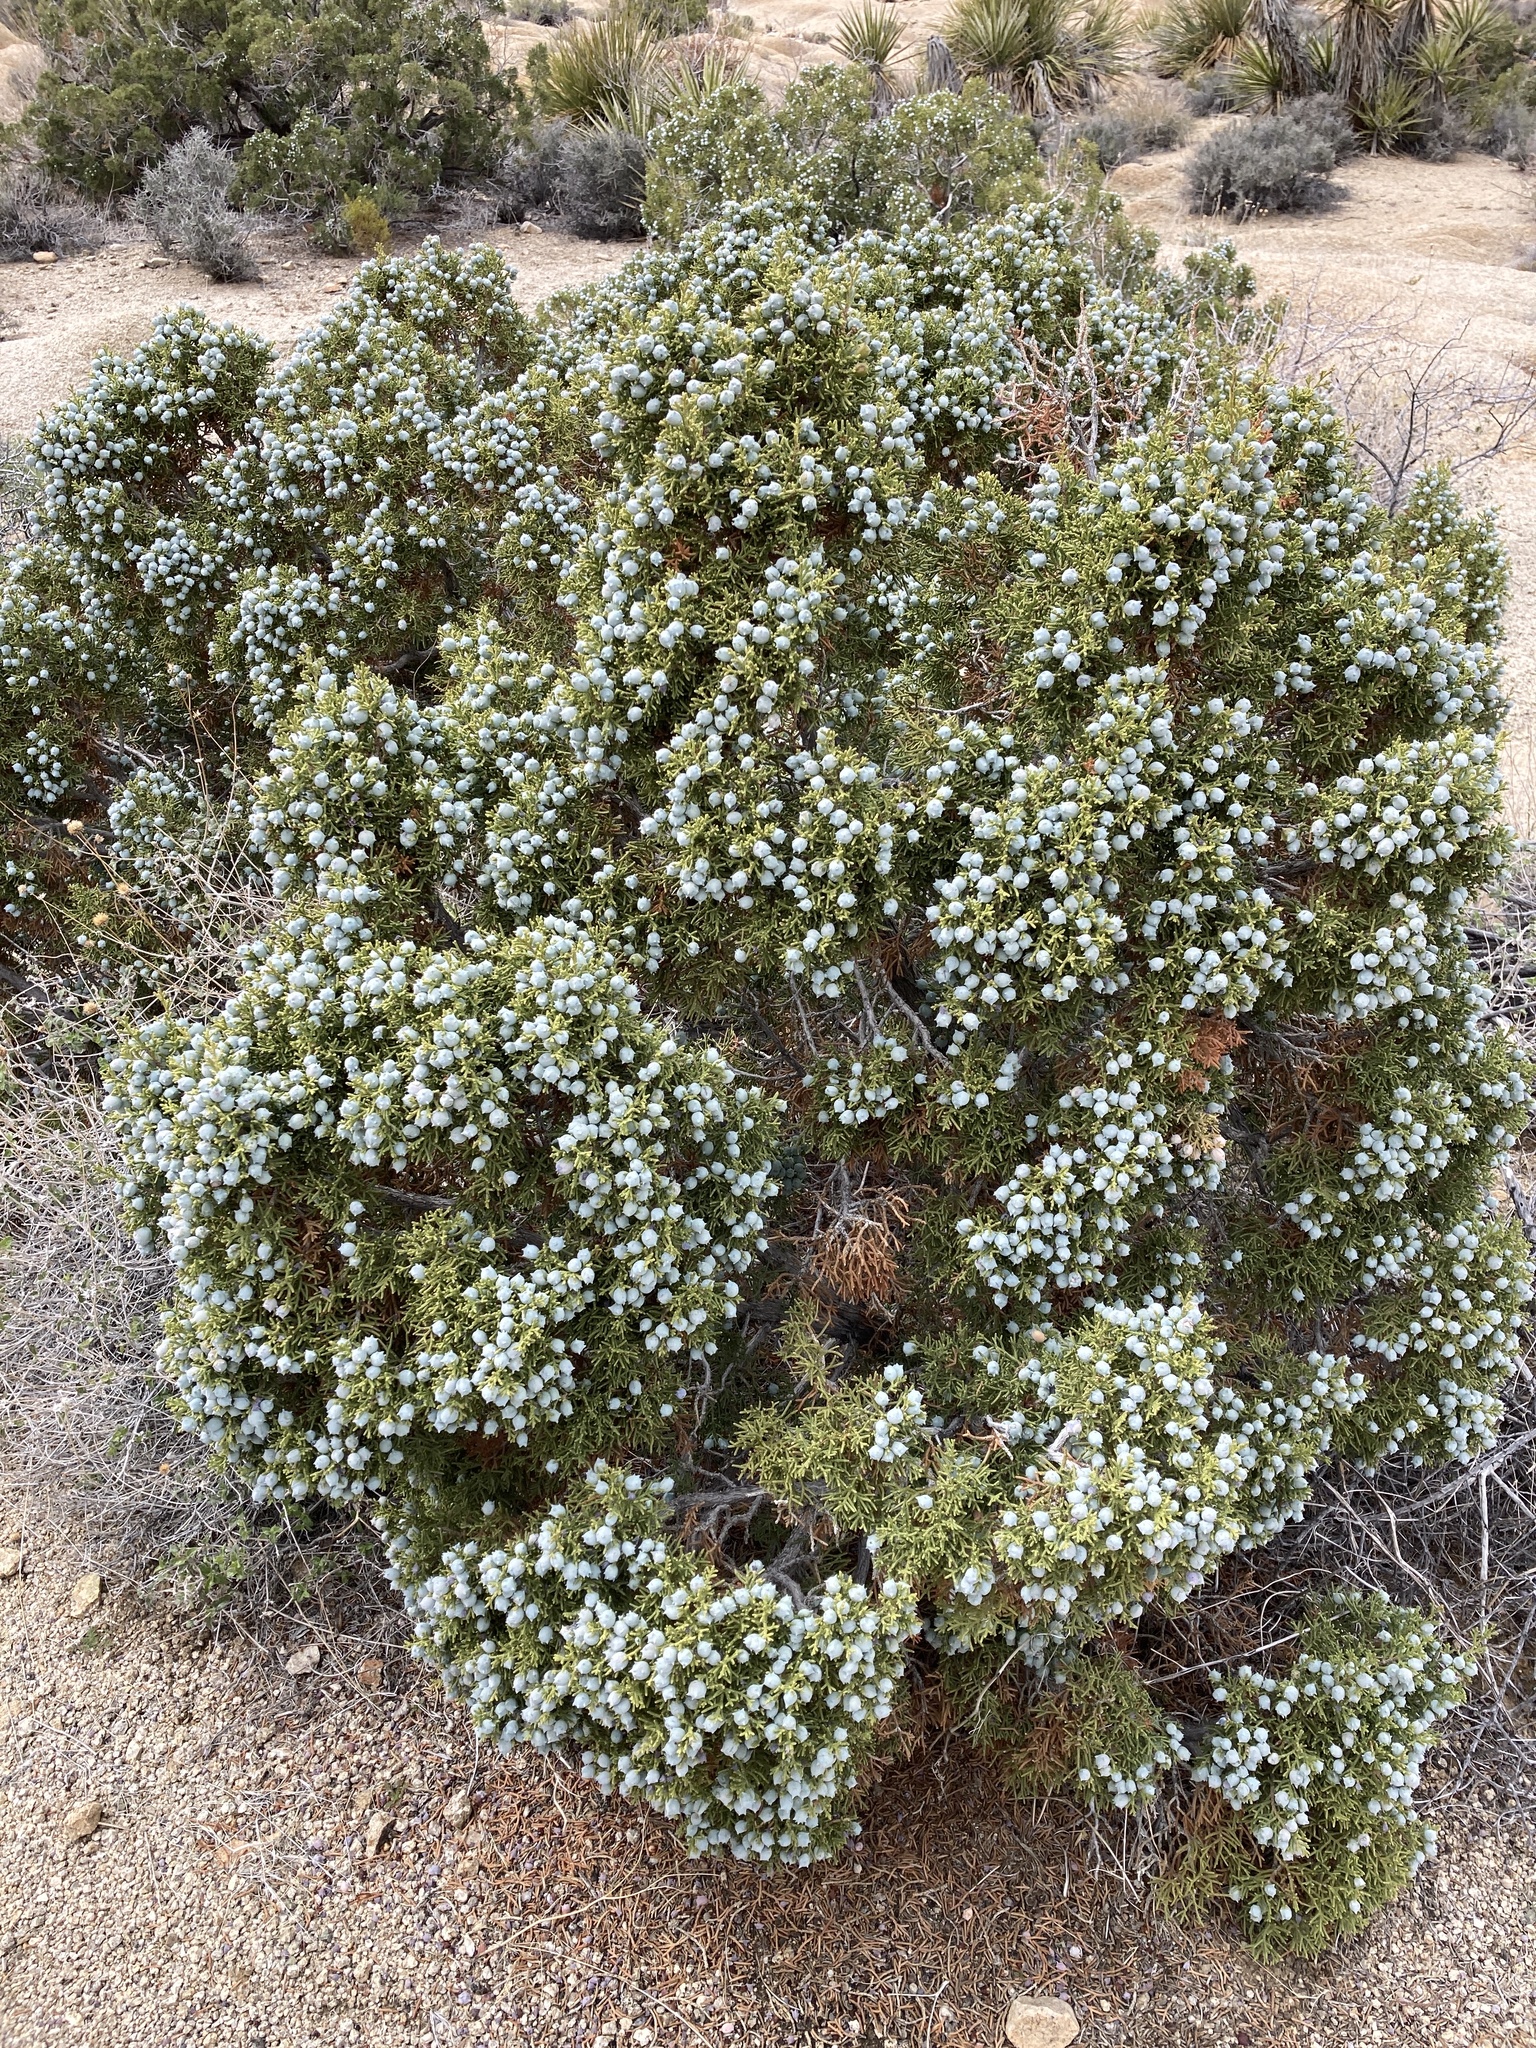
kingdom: Plantae
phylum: Tracheophyta
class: Pinopsida
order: Pinales
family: Cupressaceae
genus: Juniperus
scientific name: Juniperus californica
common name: California juniper
